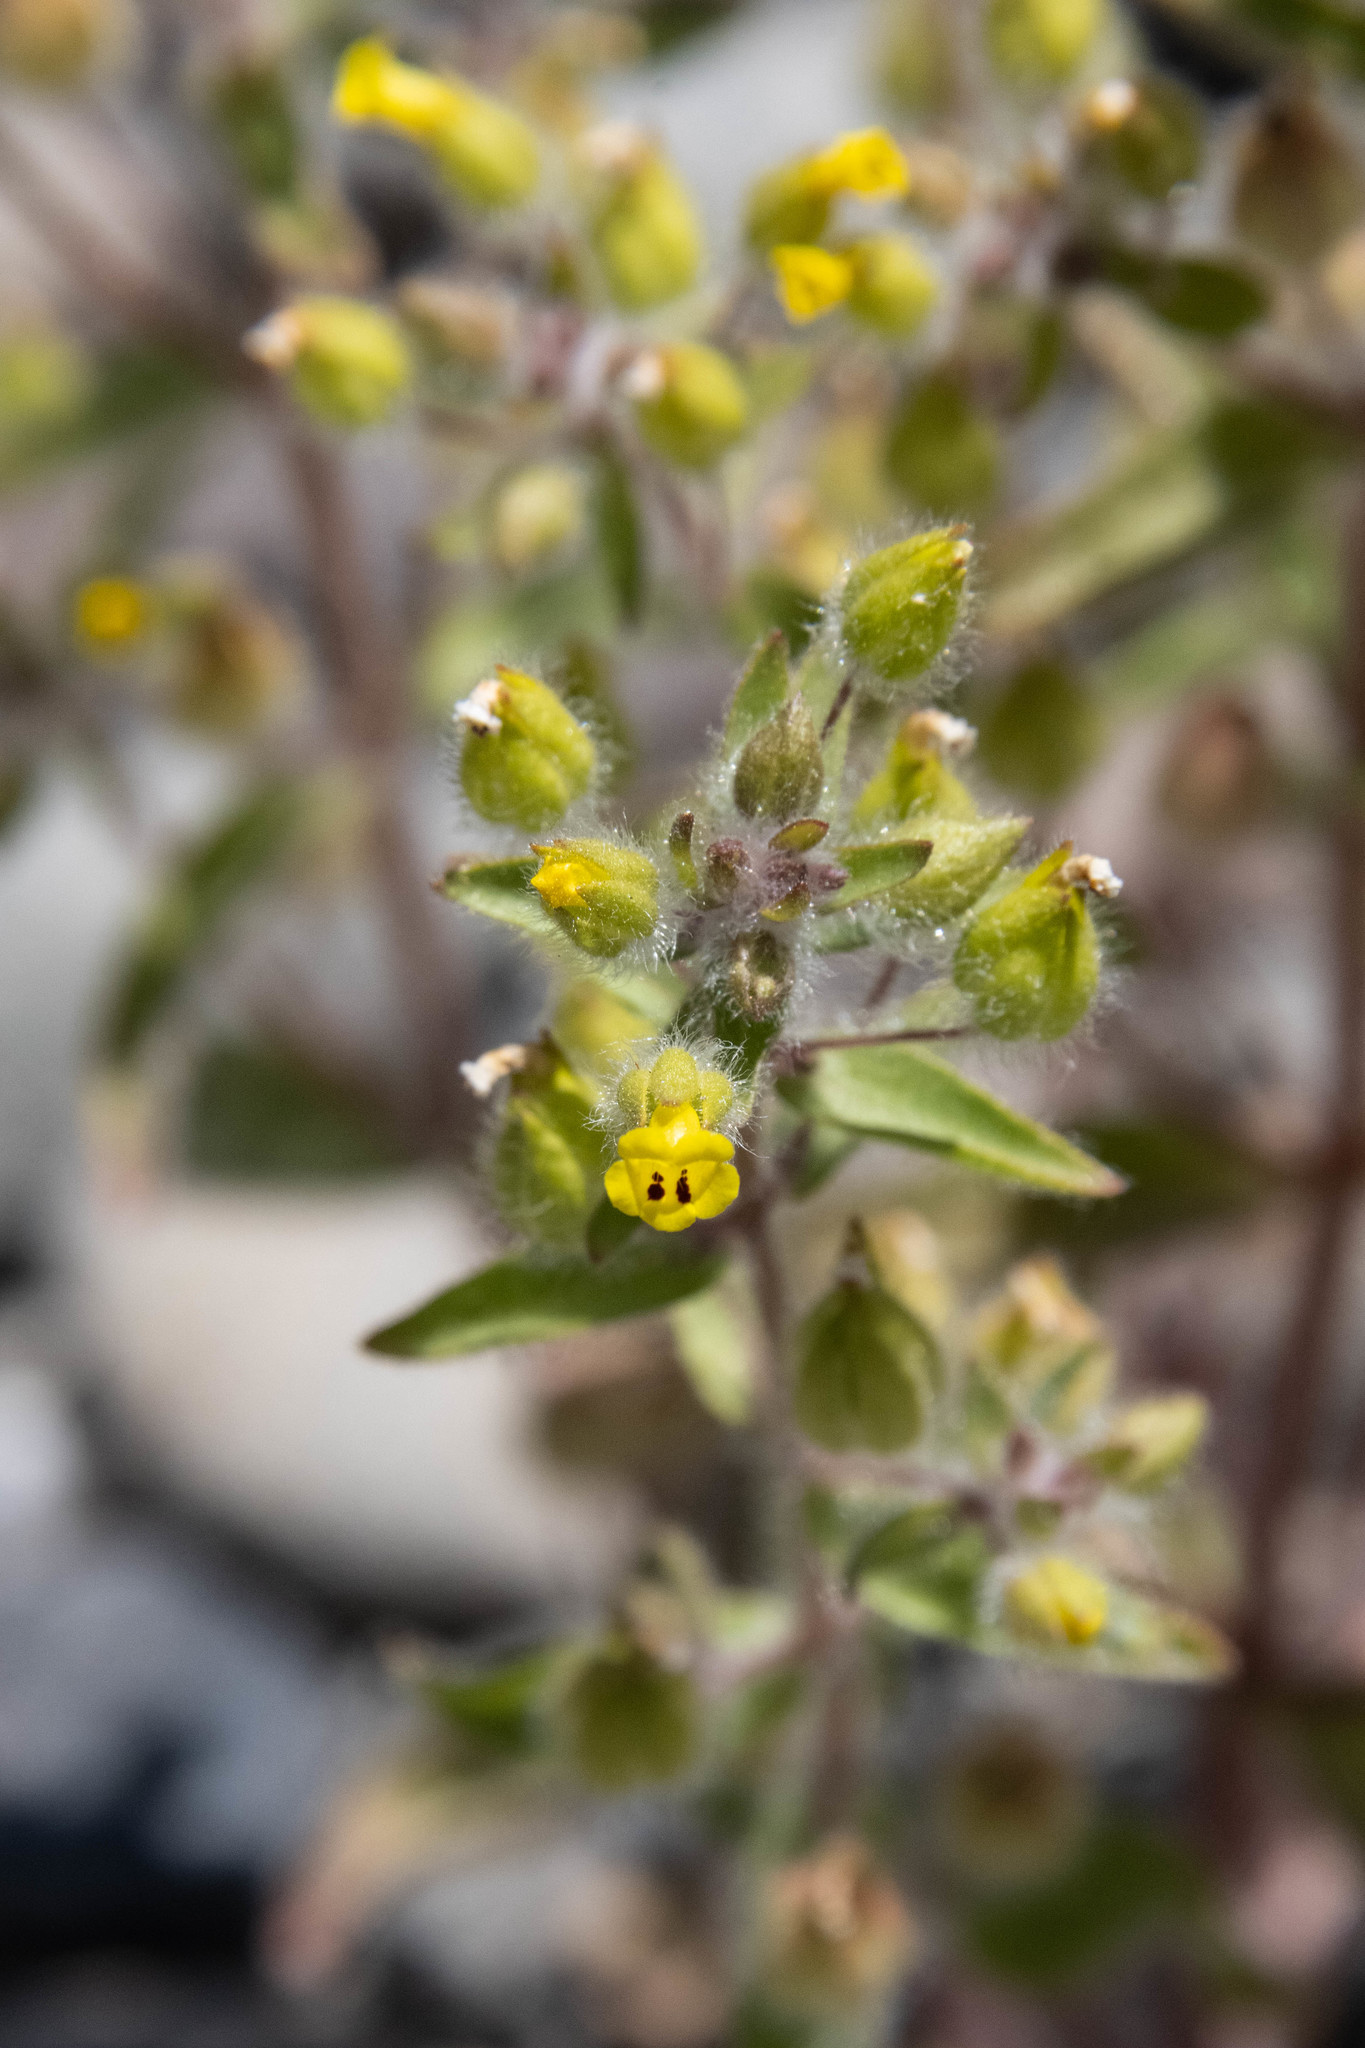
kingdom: Plantae
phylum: Tracheophyta
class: Magnoliopsida
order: Lamiales
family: Phrymaceae
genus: Mimetanthe
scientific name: Mimetanthe pilosa
